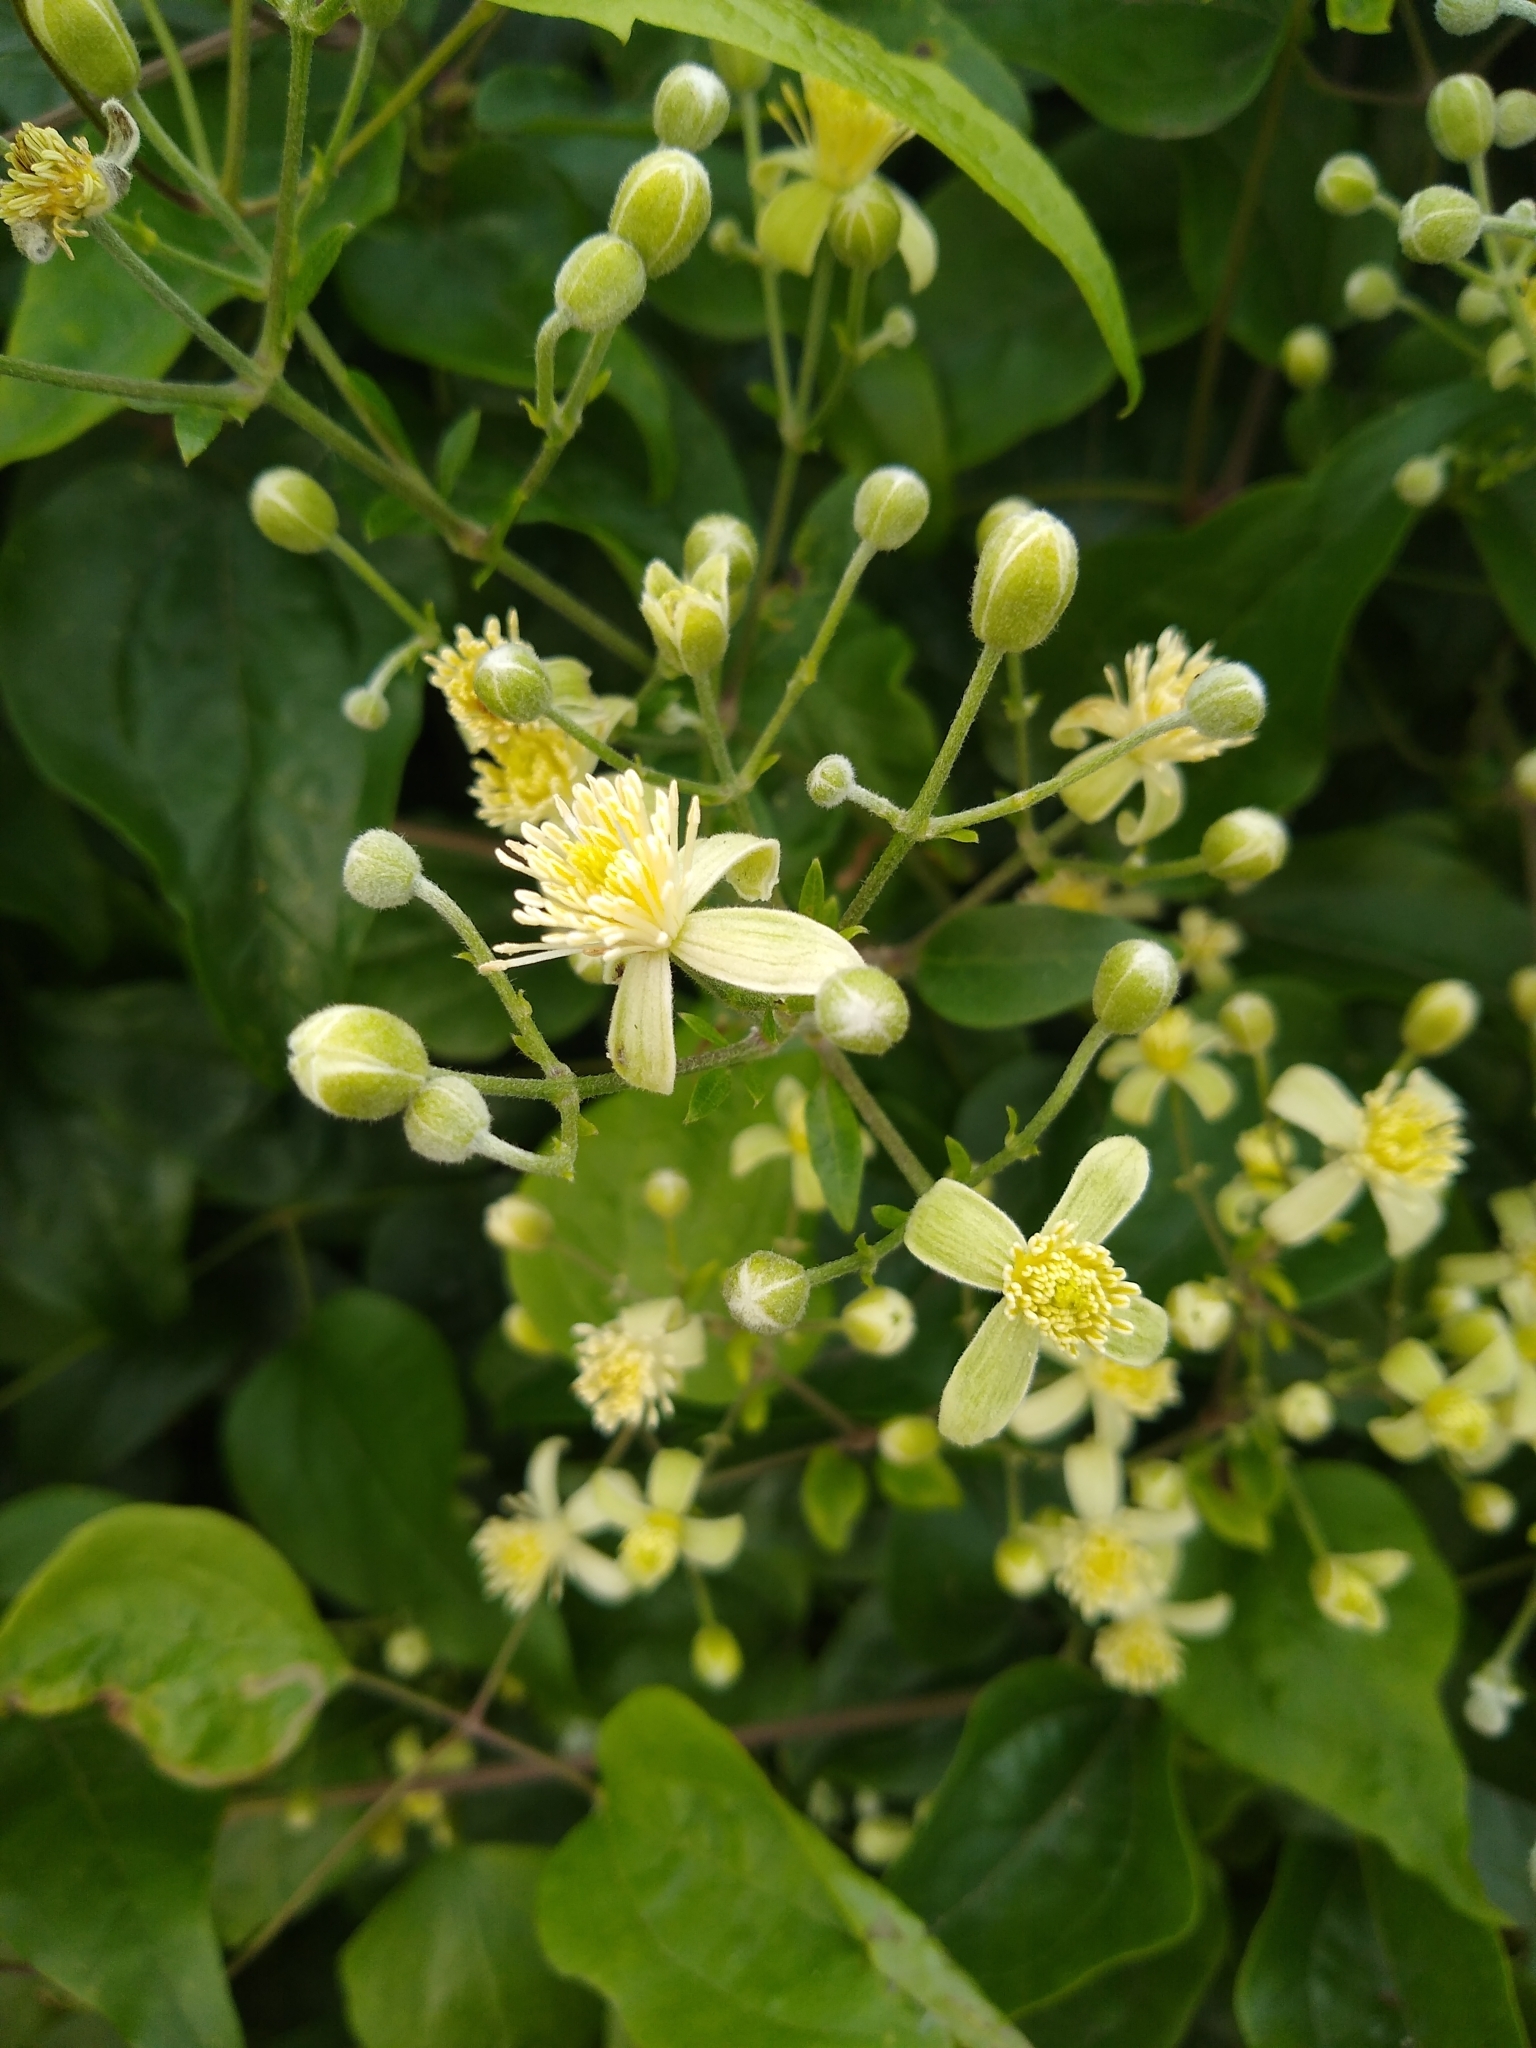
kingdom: Plantae
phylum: Tracheophyta
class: Magnoliopsida
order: Ranunculales
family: Ranunculaceae
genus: Clematis
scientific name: Clematis vitalba
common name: Evergreen clematis
